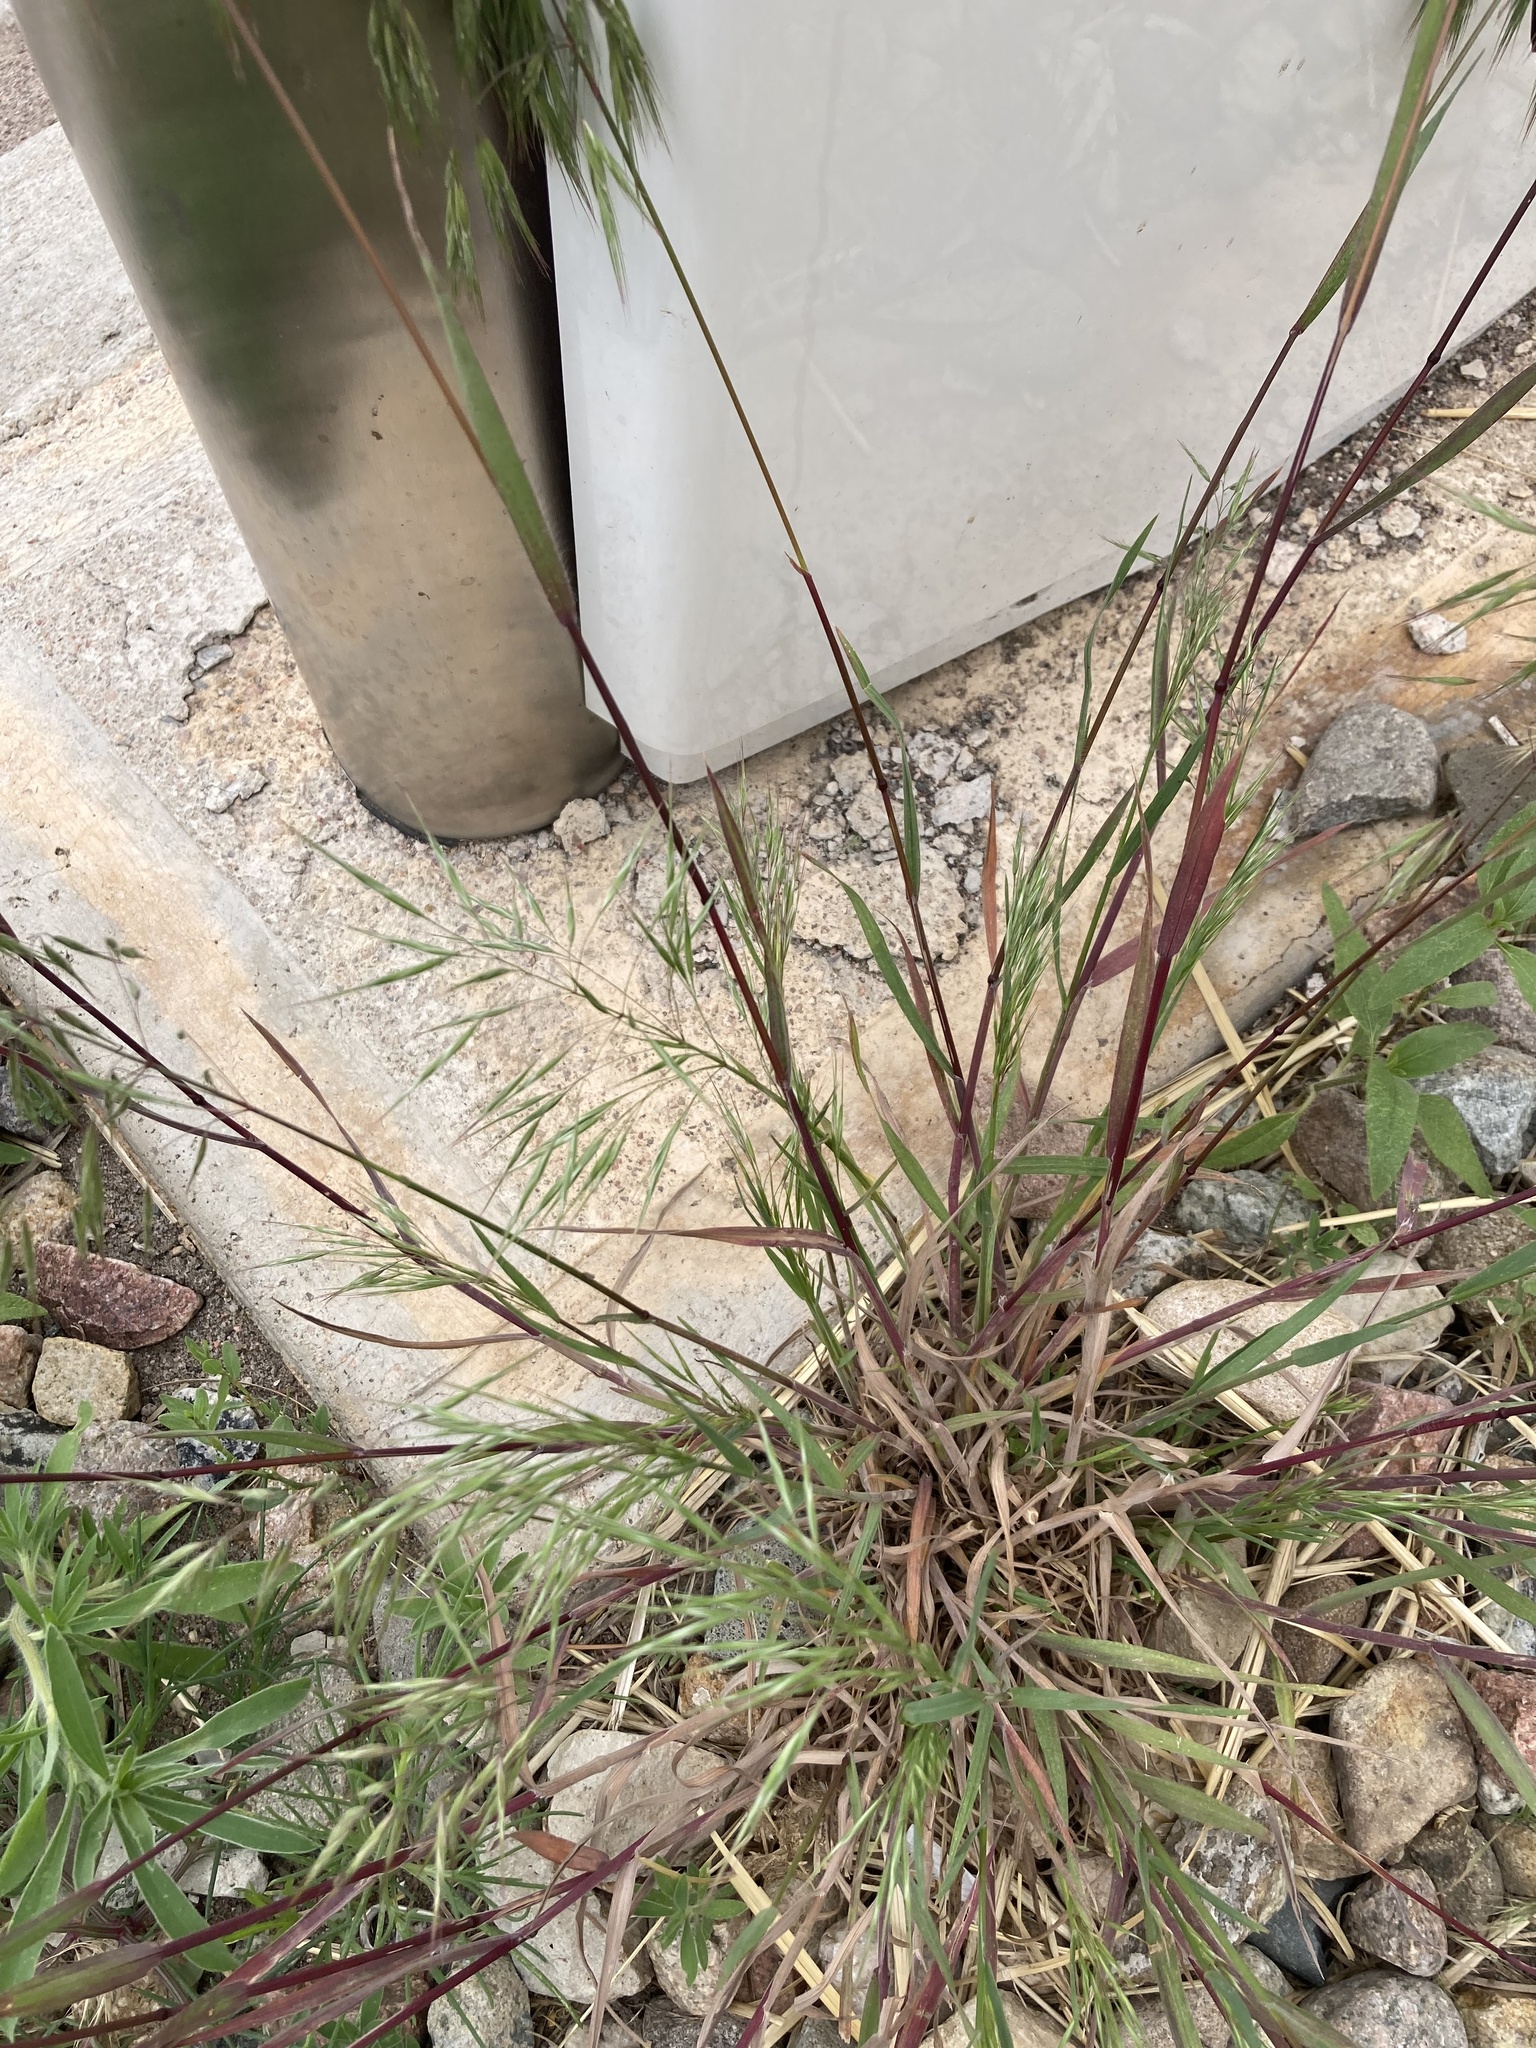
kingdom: Plantae
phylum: Tracheophyta
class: Liliopsida
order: Poales
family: Poaceae
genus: Bromus
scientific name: Bromus tectorum
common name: Cheatgrass
